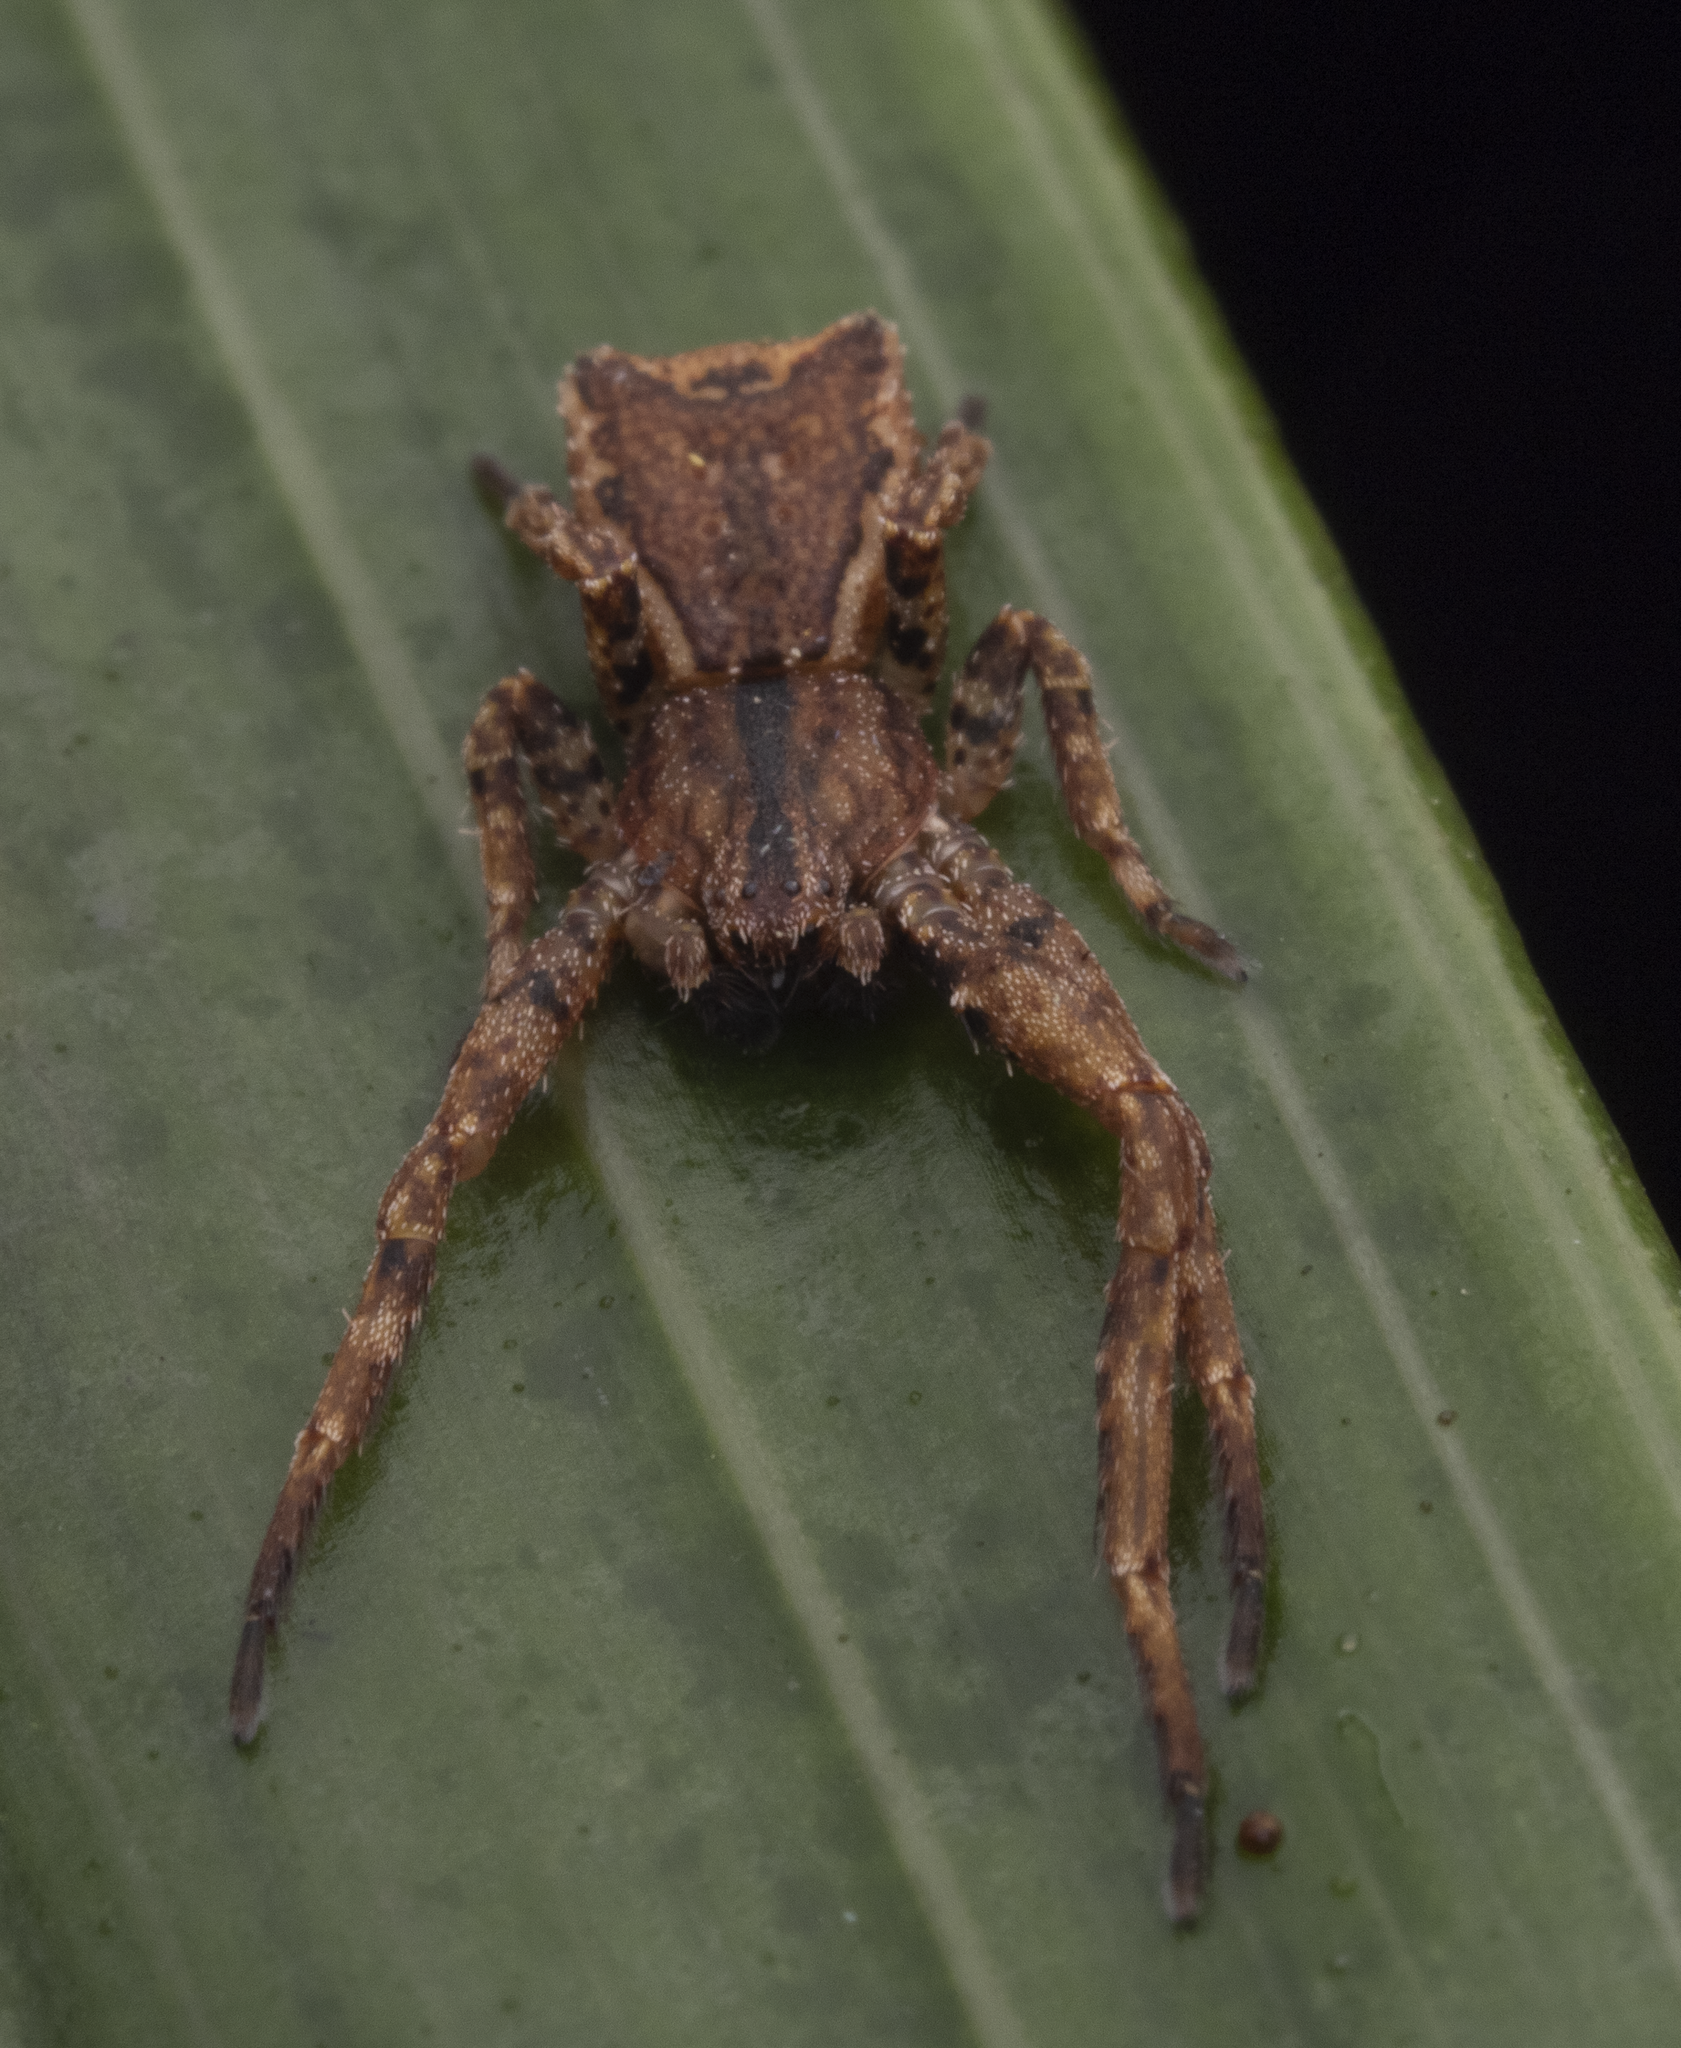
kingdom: Animalia
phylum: Arthropoda
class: Arachnida
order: Araneae
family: Thomisidae
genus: Sidymella
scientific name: Sidymella angularis
